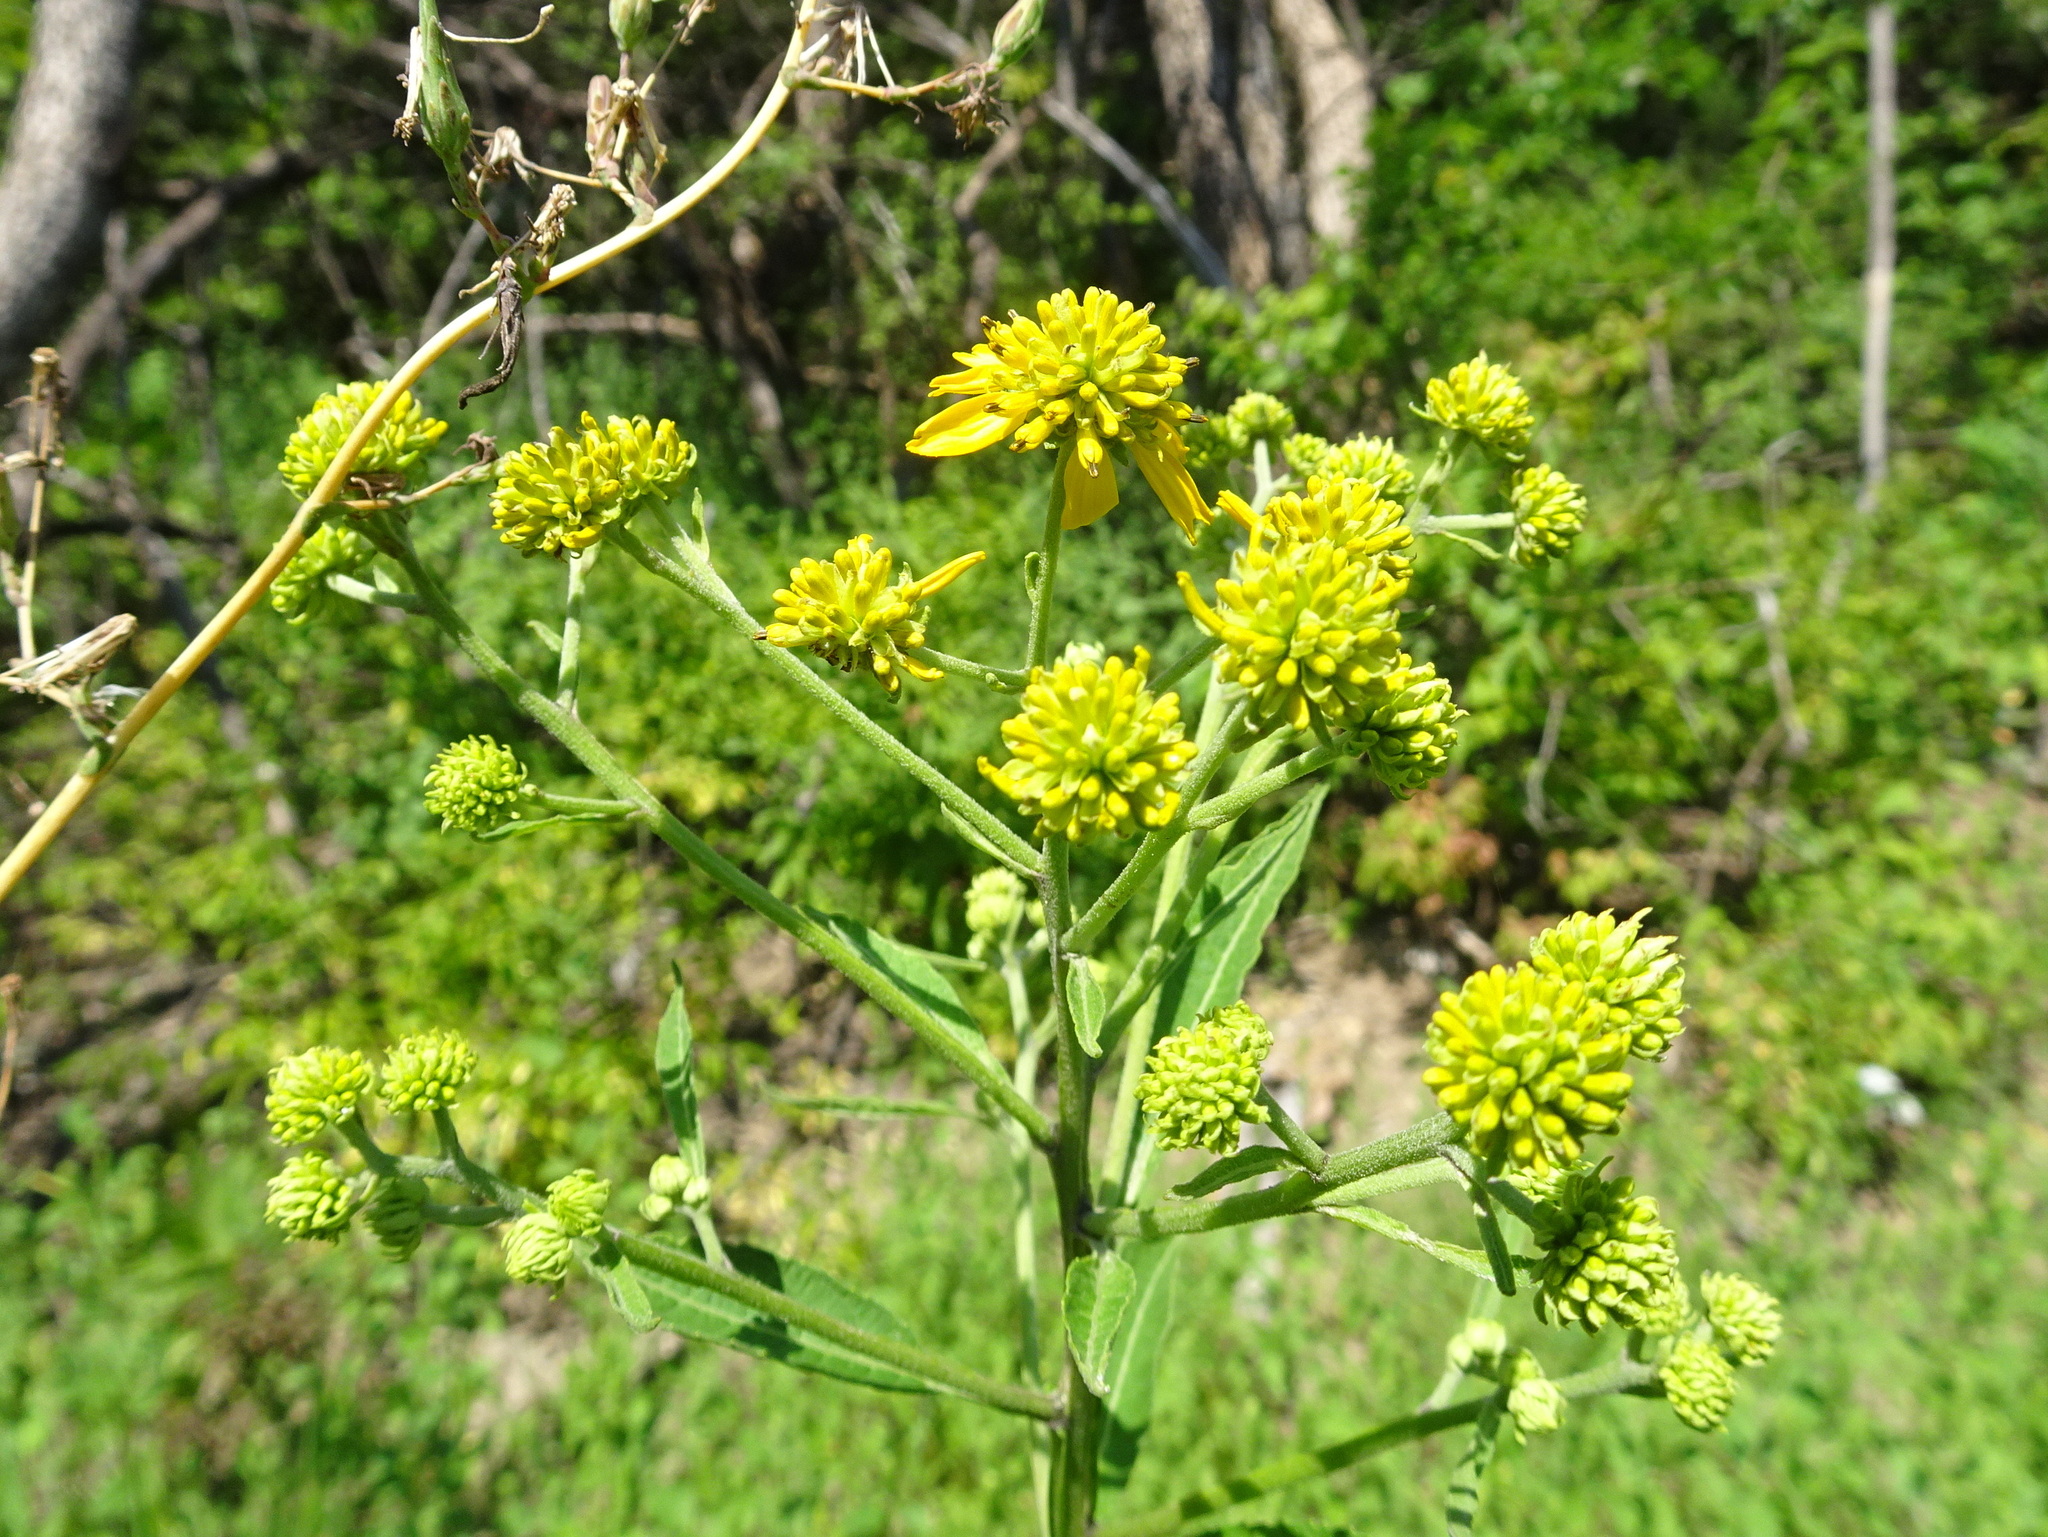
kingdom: Plantae
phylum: Tracheophyta
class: Magnoliopsida
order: Asterales
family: Asteraceae
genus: Verbesina
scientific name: Verbesina alternifolia
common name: Wingstem
